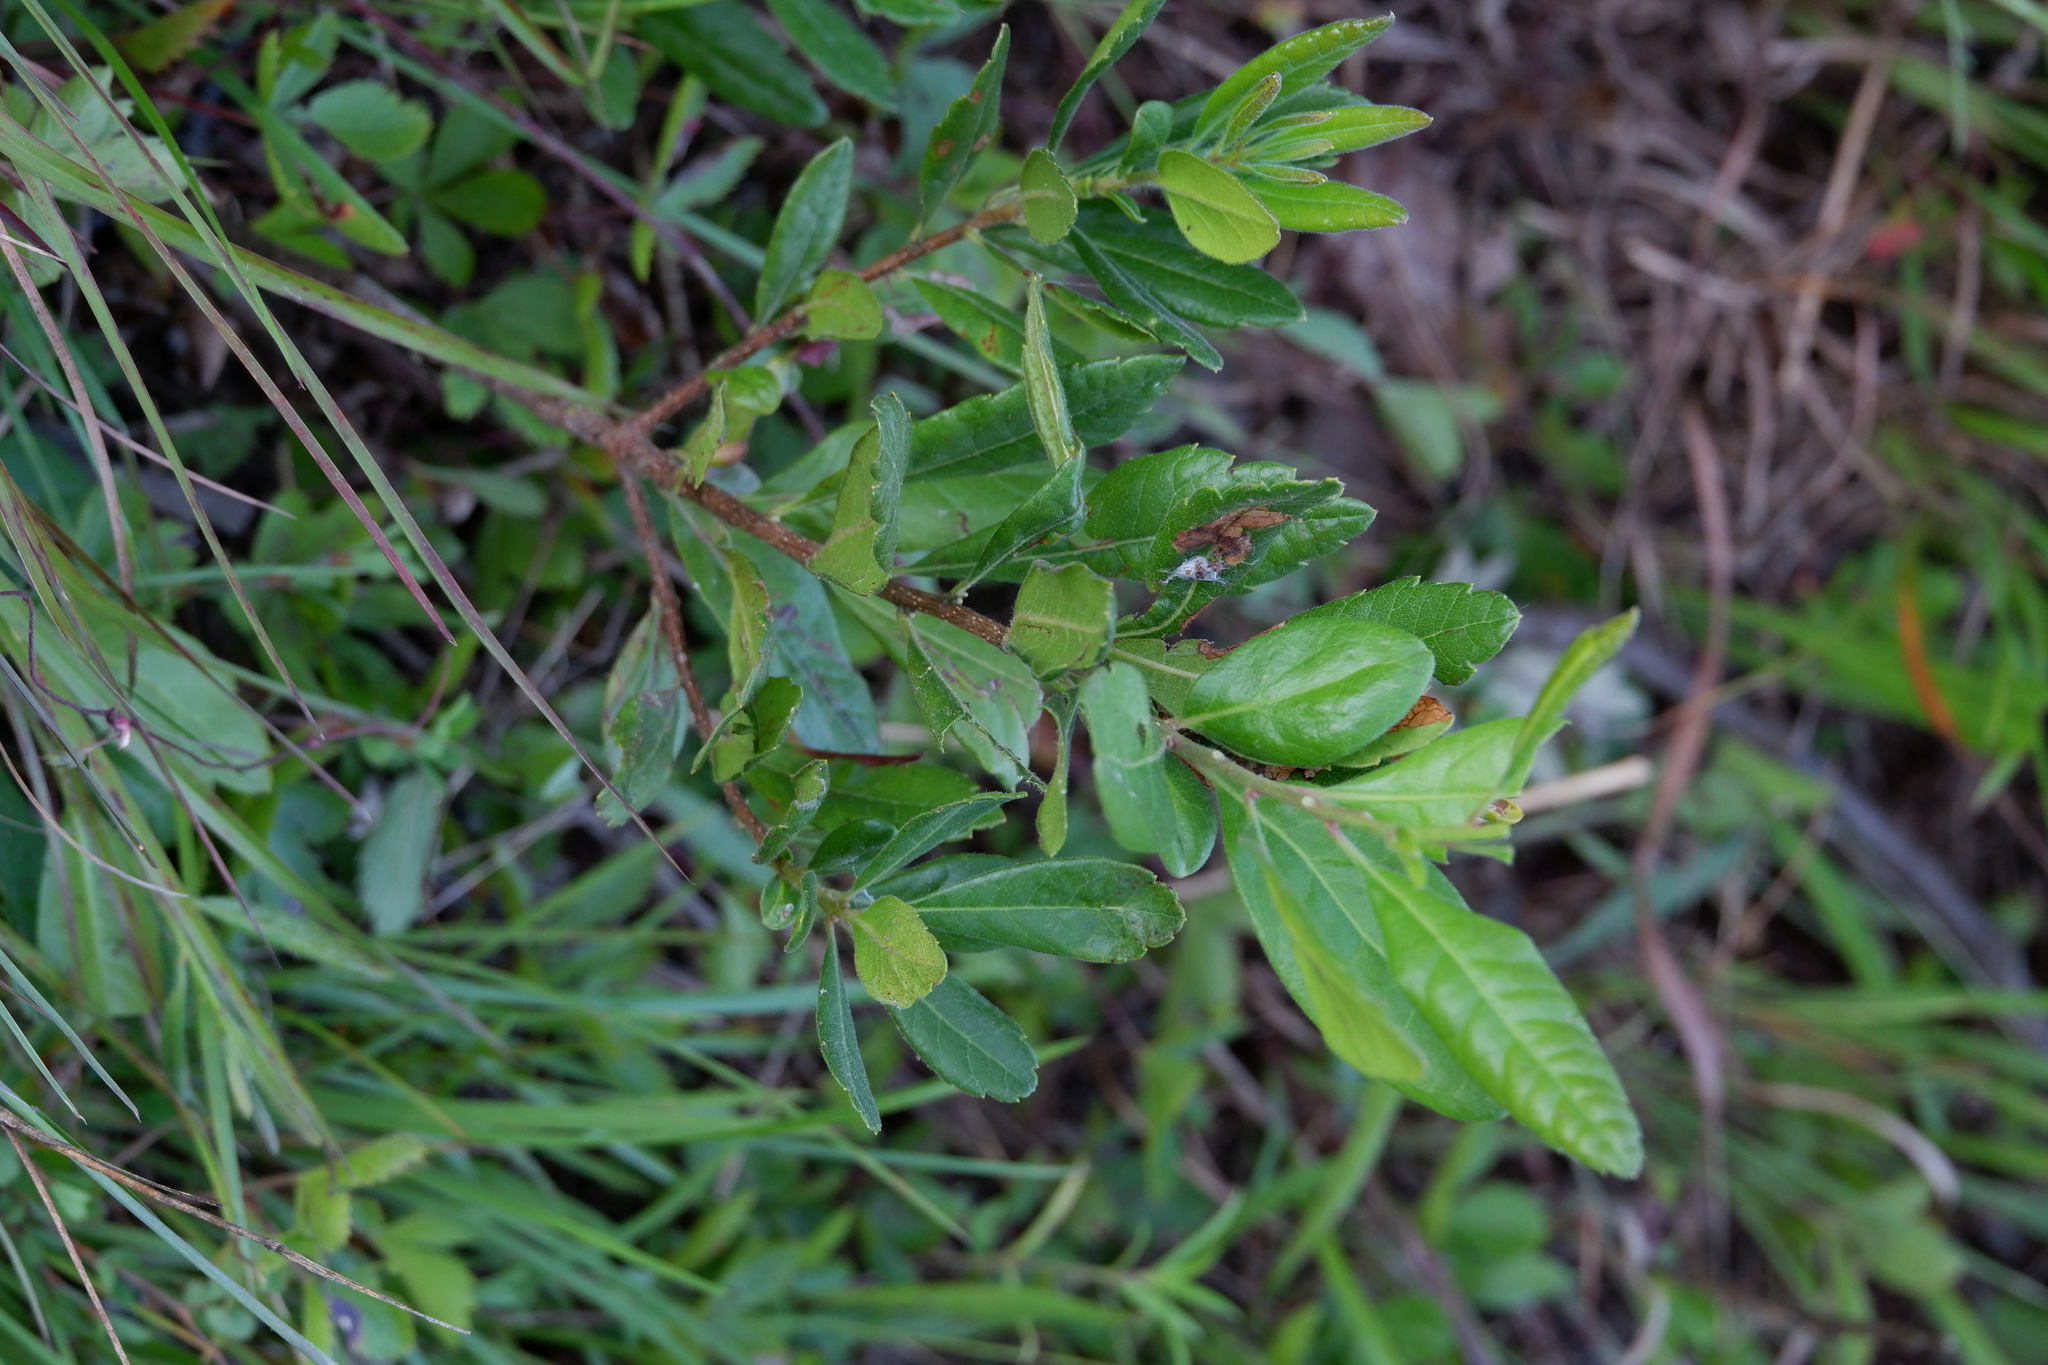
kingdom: Plantae
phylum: Tracheophyta
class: Magnoliopsida
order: Fagales
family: Myricaceae
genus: Morella
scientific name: Morella pensylvanica
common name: Northern bayberry
